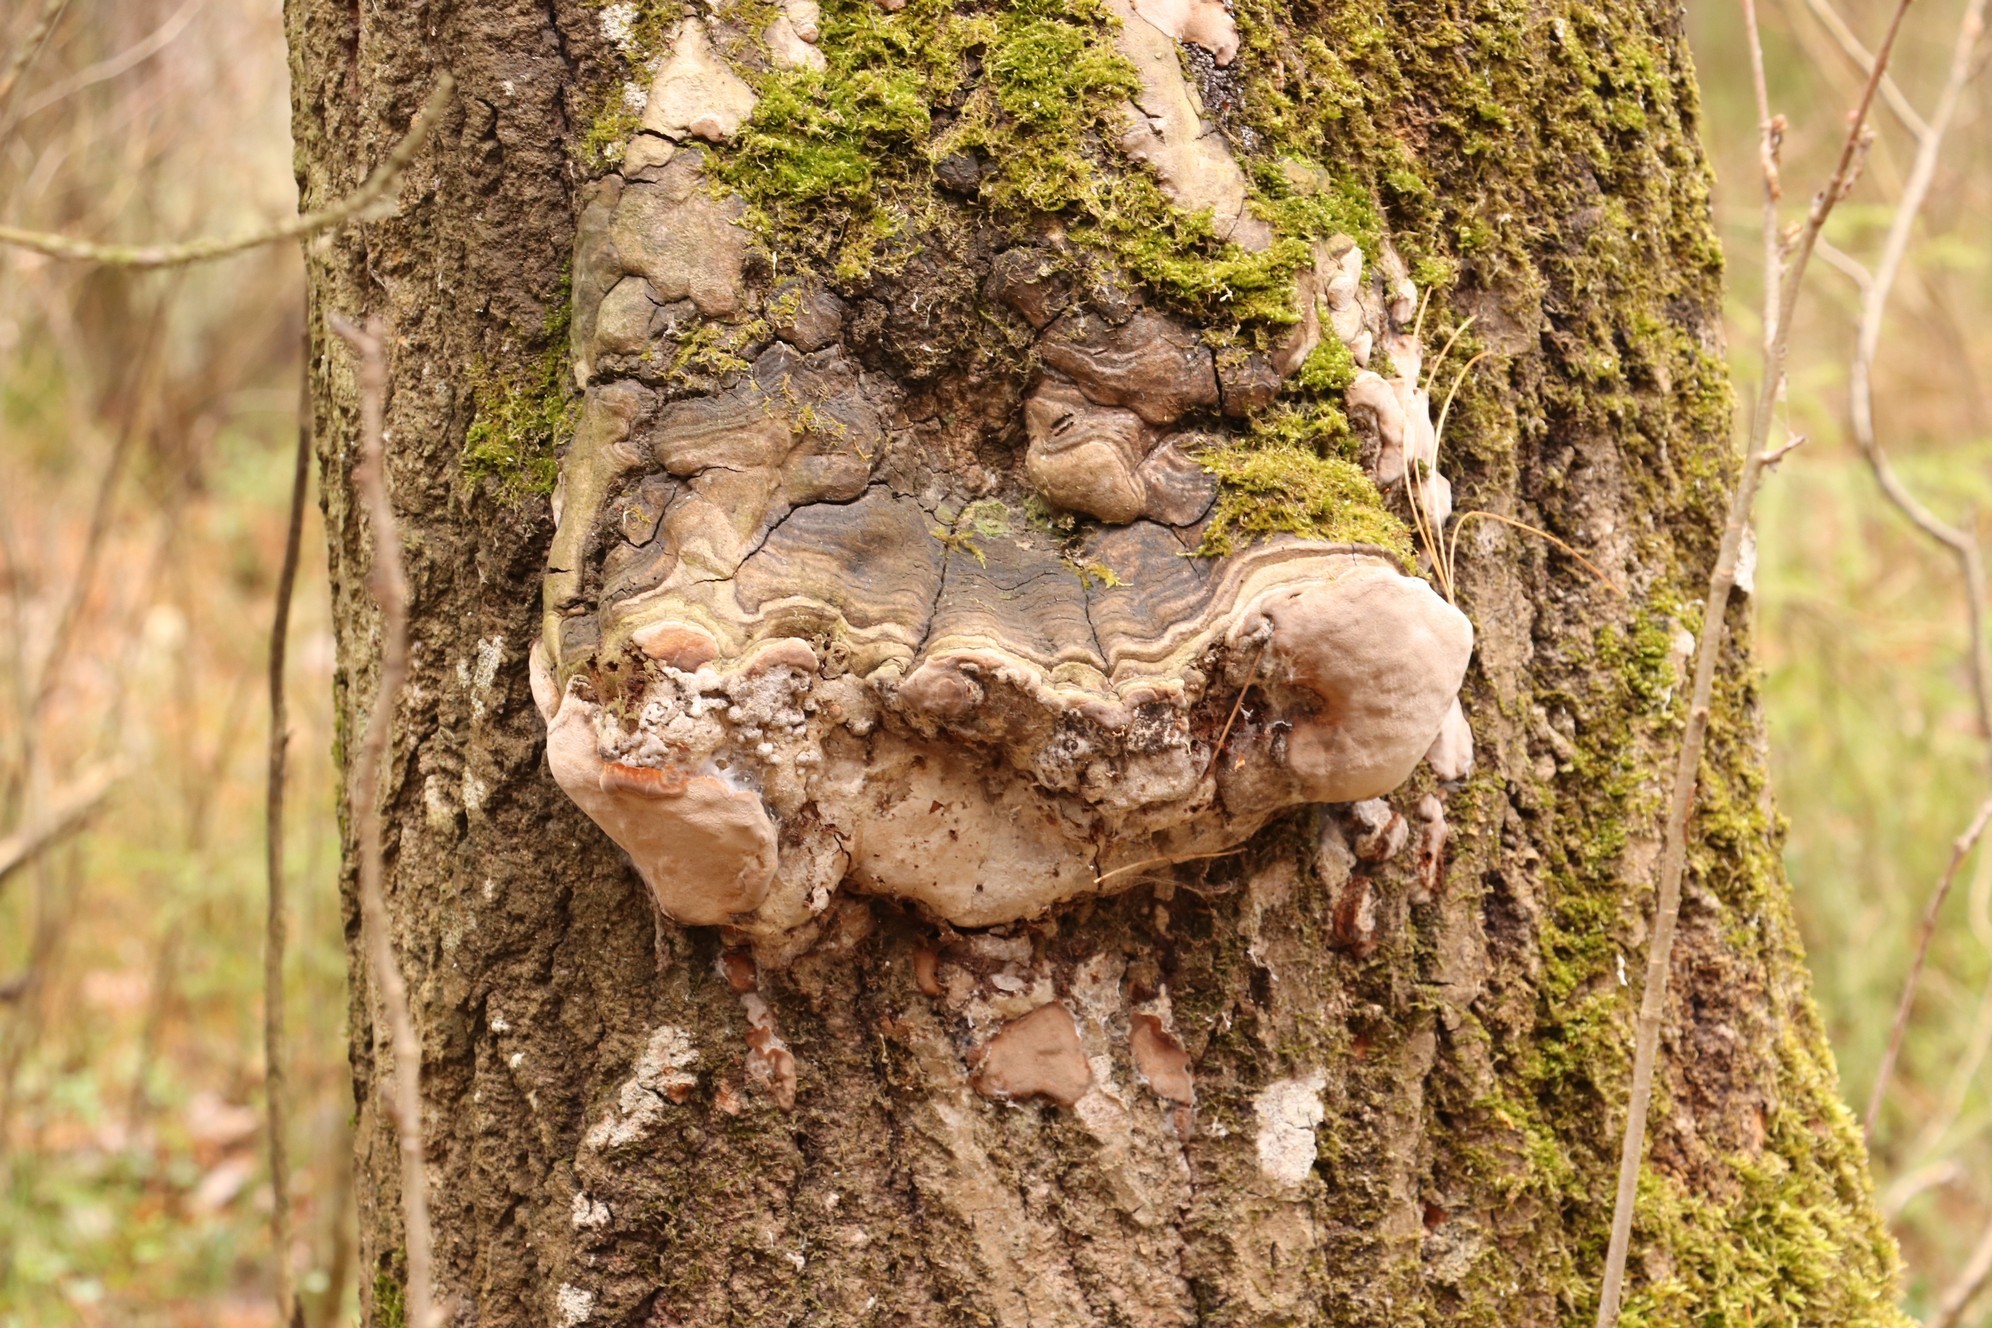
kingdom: Fungi
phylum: Basidiomycota
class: Agaricomycetes
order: Hymenochaetales
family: Hymenochaetaceae
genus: Phellinus
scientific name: Phellinus tremulae
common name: Aspen bracket
